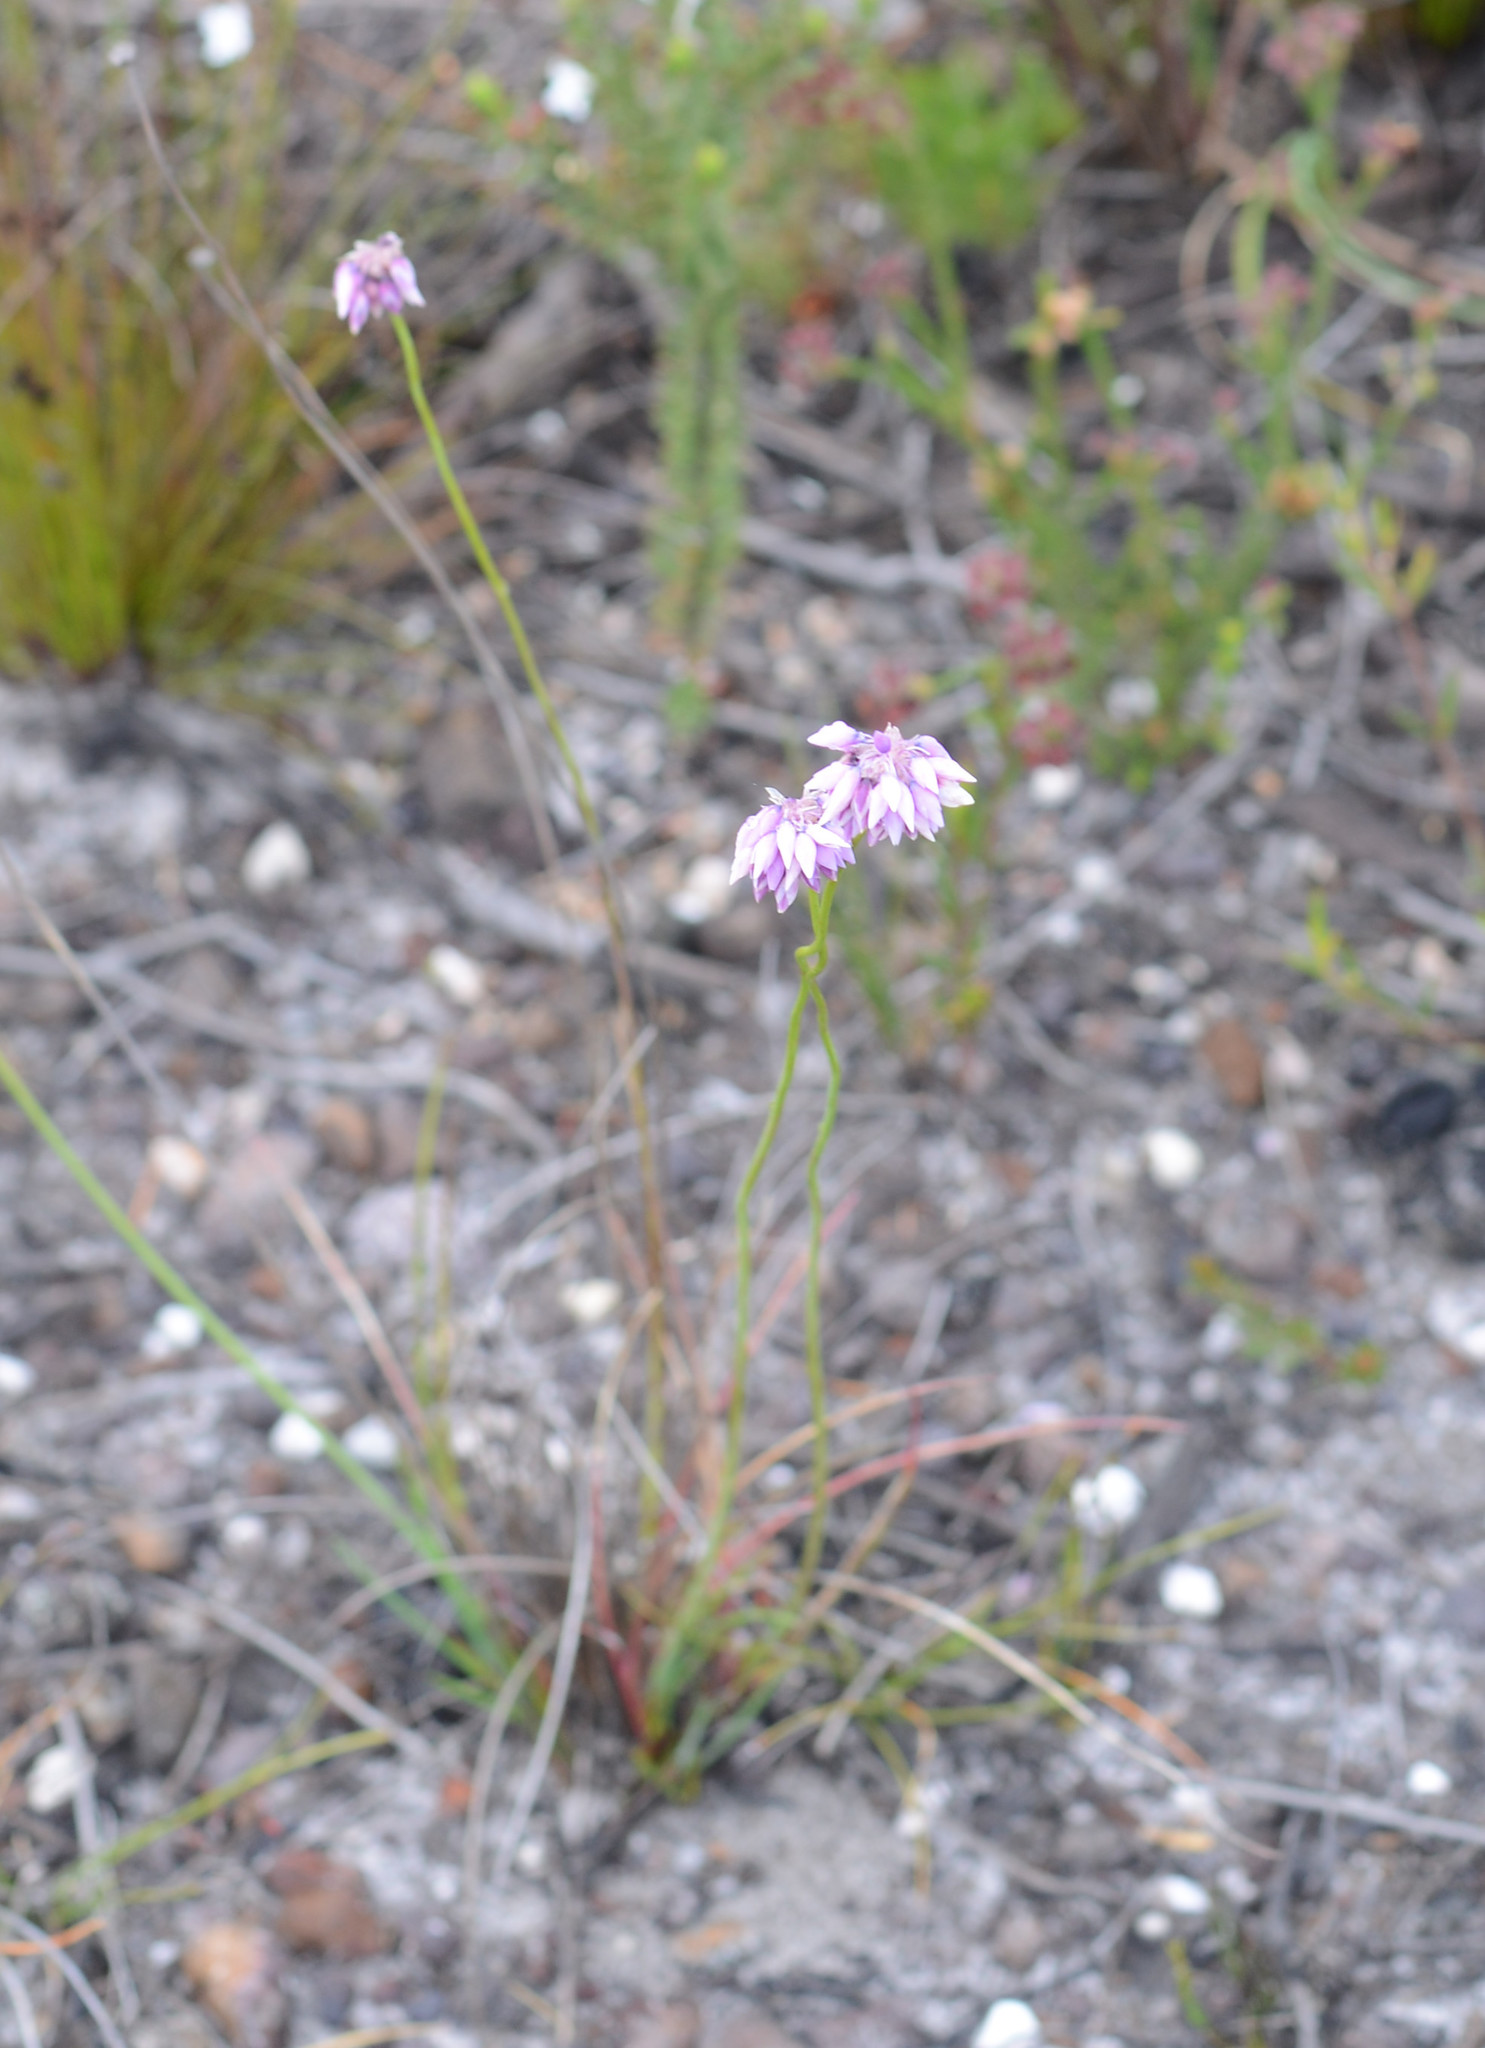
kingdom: Plantae
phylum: Tracheophyta
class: Liliopsida
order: Asparagales
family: Asparagaceae
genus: Sowerbaea
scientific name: Sowerbaea juncea
